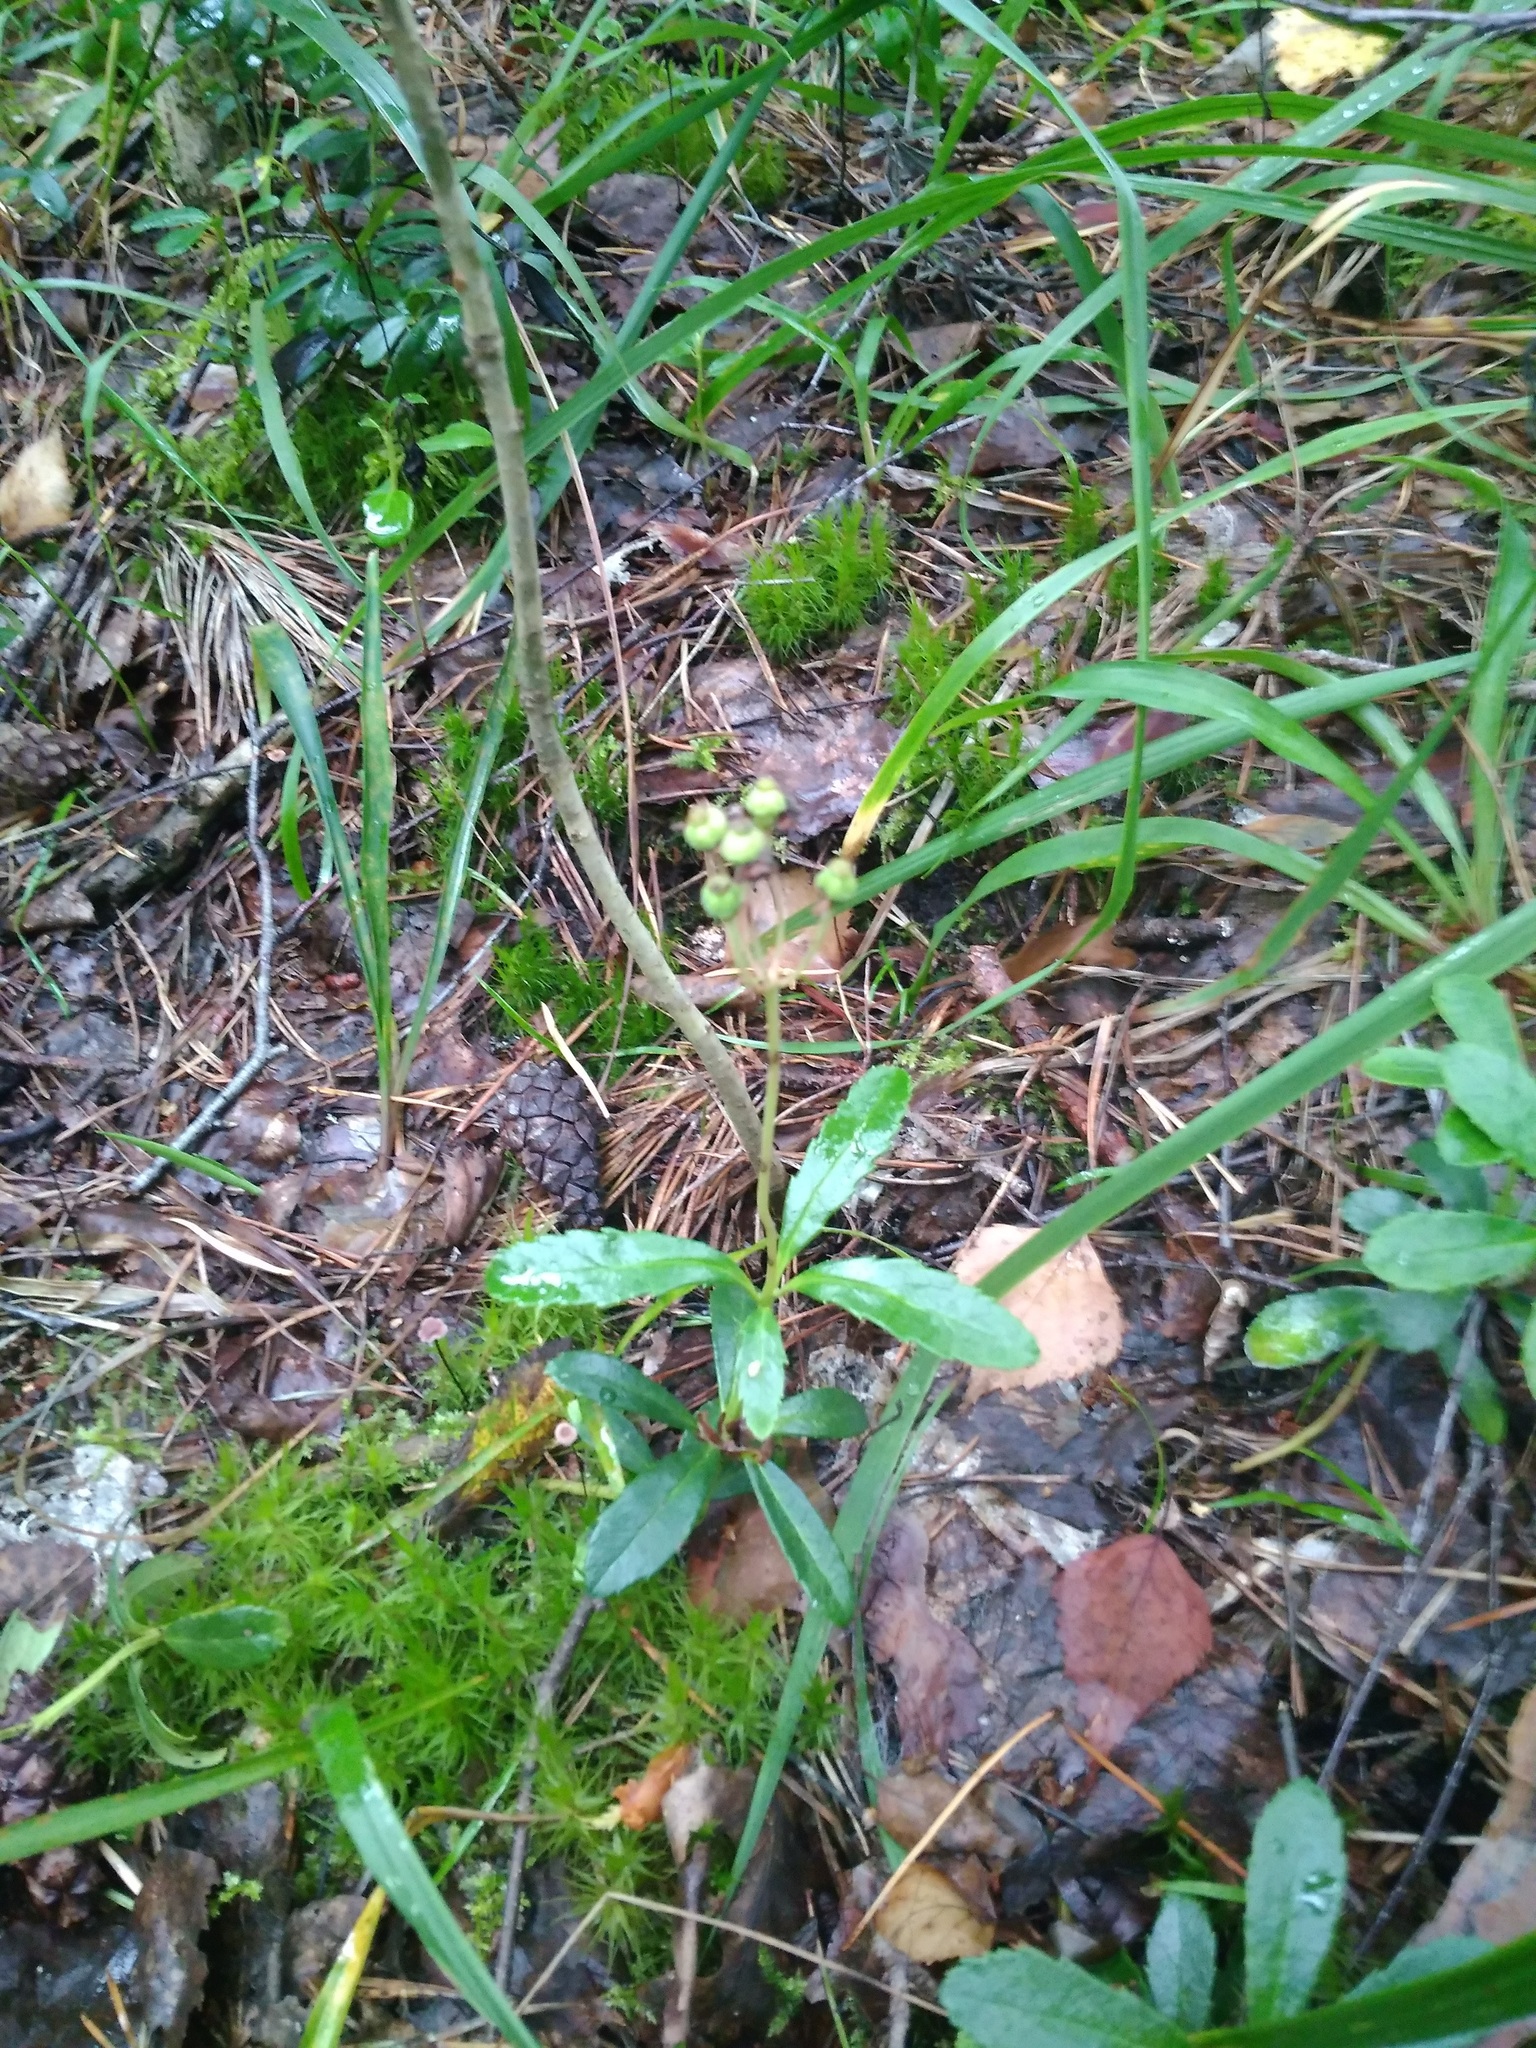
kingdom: Plantae
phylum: Tracheophyta
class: Magnoliopsida
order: Ericales
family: Ericaceae
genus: Chimaphila
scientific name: Chimaphila umbellata
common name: Pipsissewa
